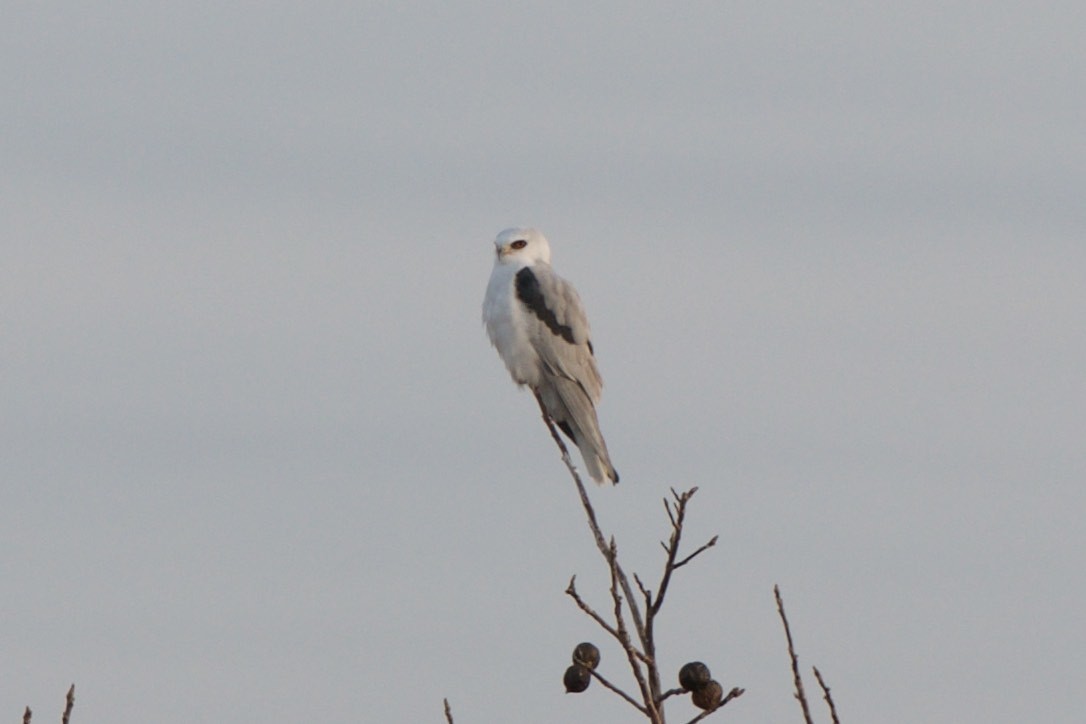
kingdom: Animalia
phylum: Chordata
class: Aves
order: Accipitriformes
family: Accipitridae
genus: Elanus
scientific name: Elanus leucurus
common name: White-tailed kite
